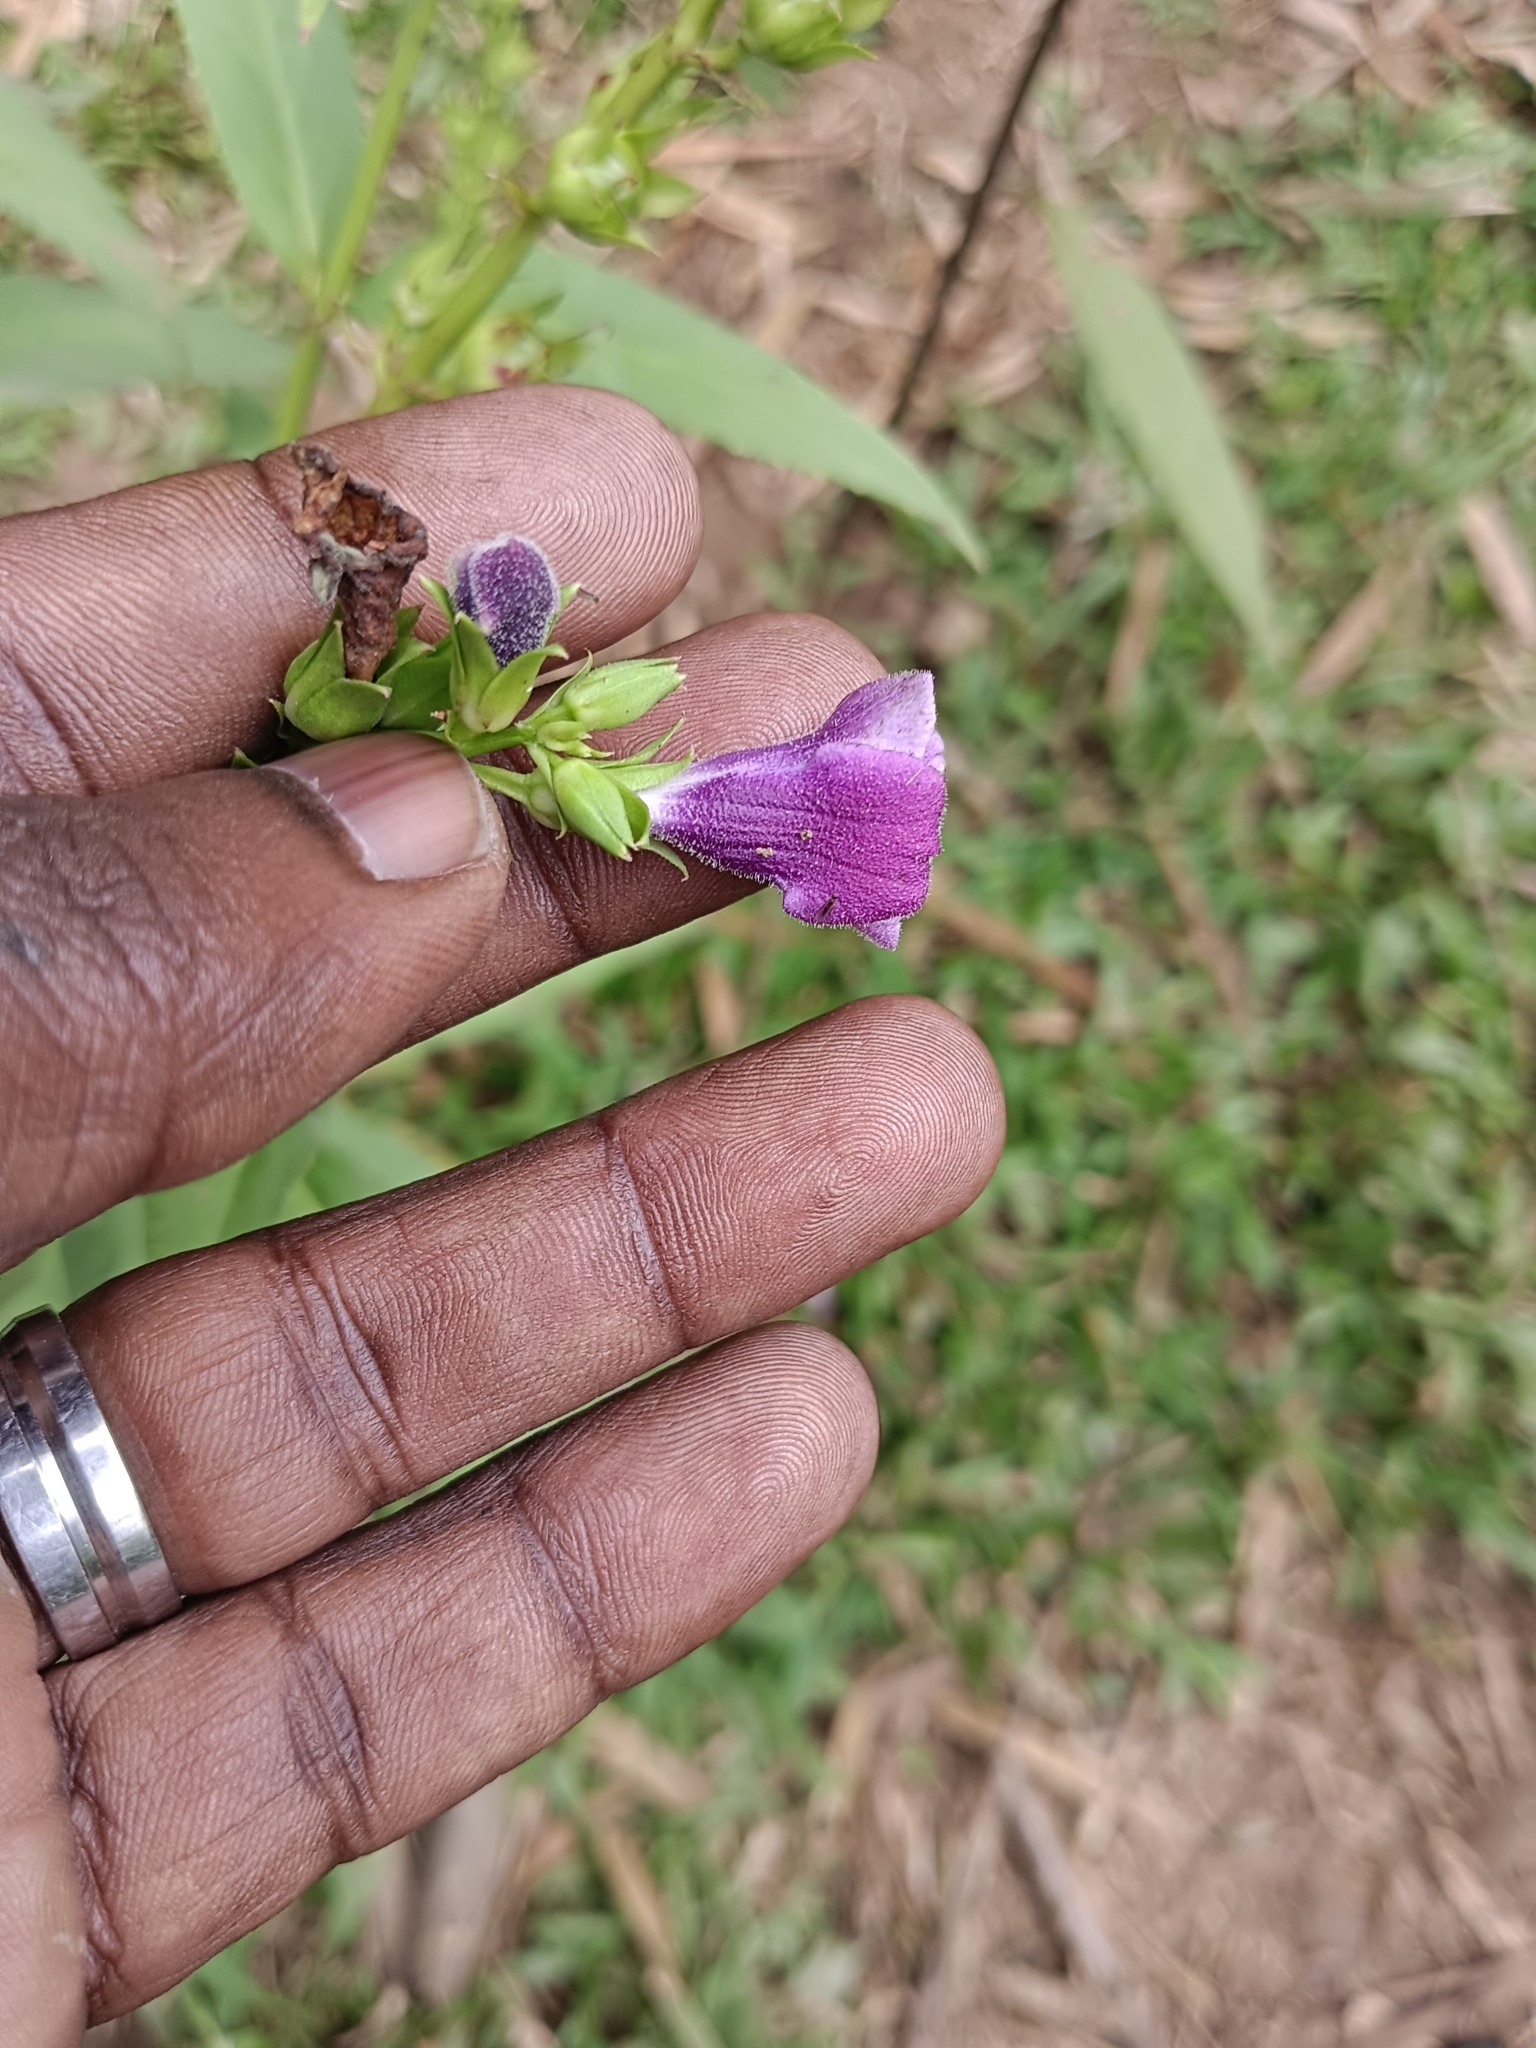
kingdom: Plantae
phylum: Tracheophyta
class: Magnoliopsida
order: Lamiales
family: Linderniaceae
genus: Artanema
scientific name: Artanema longifolium
